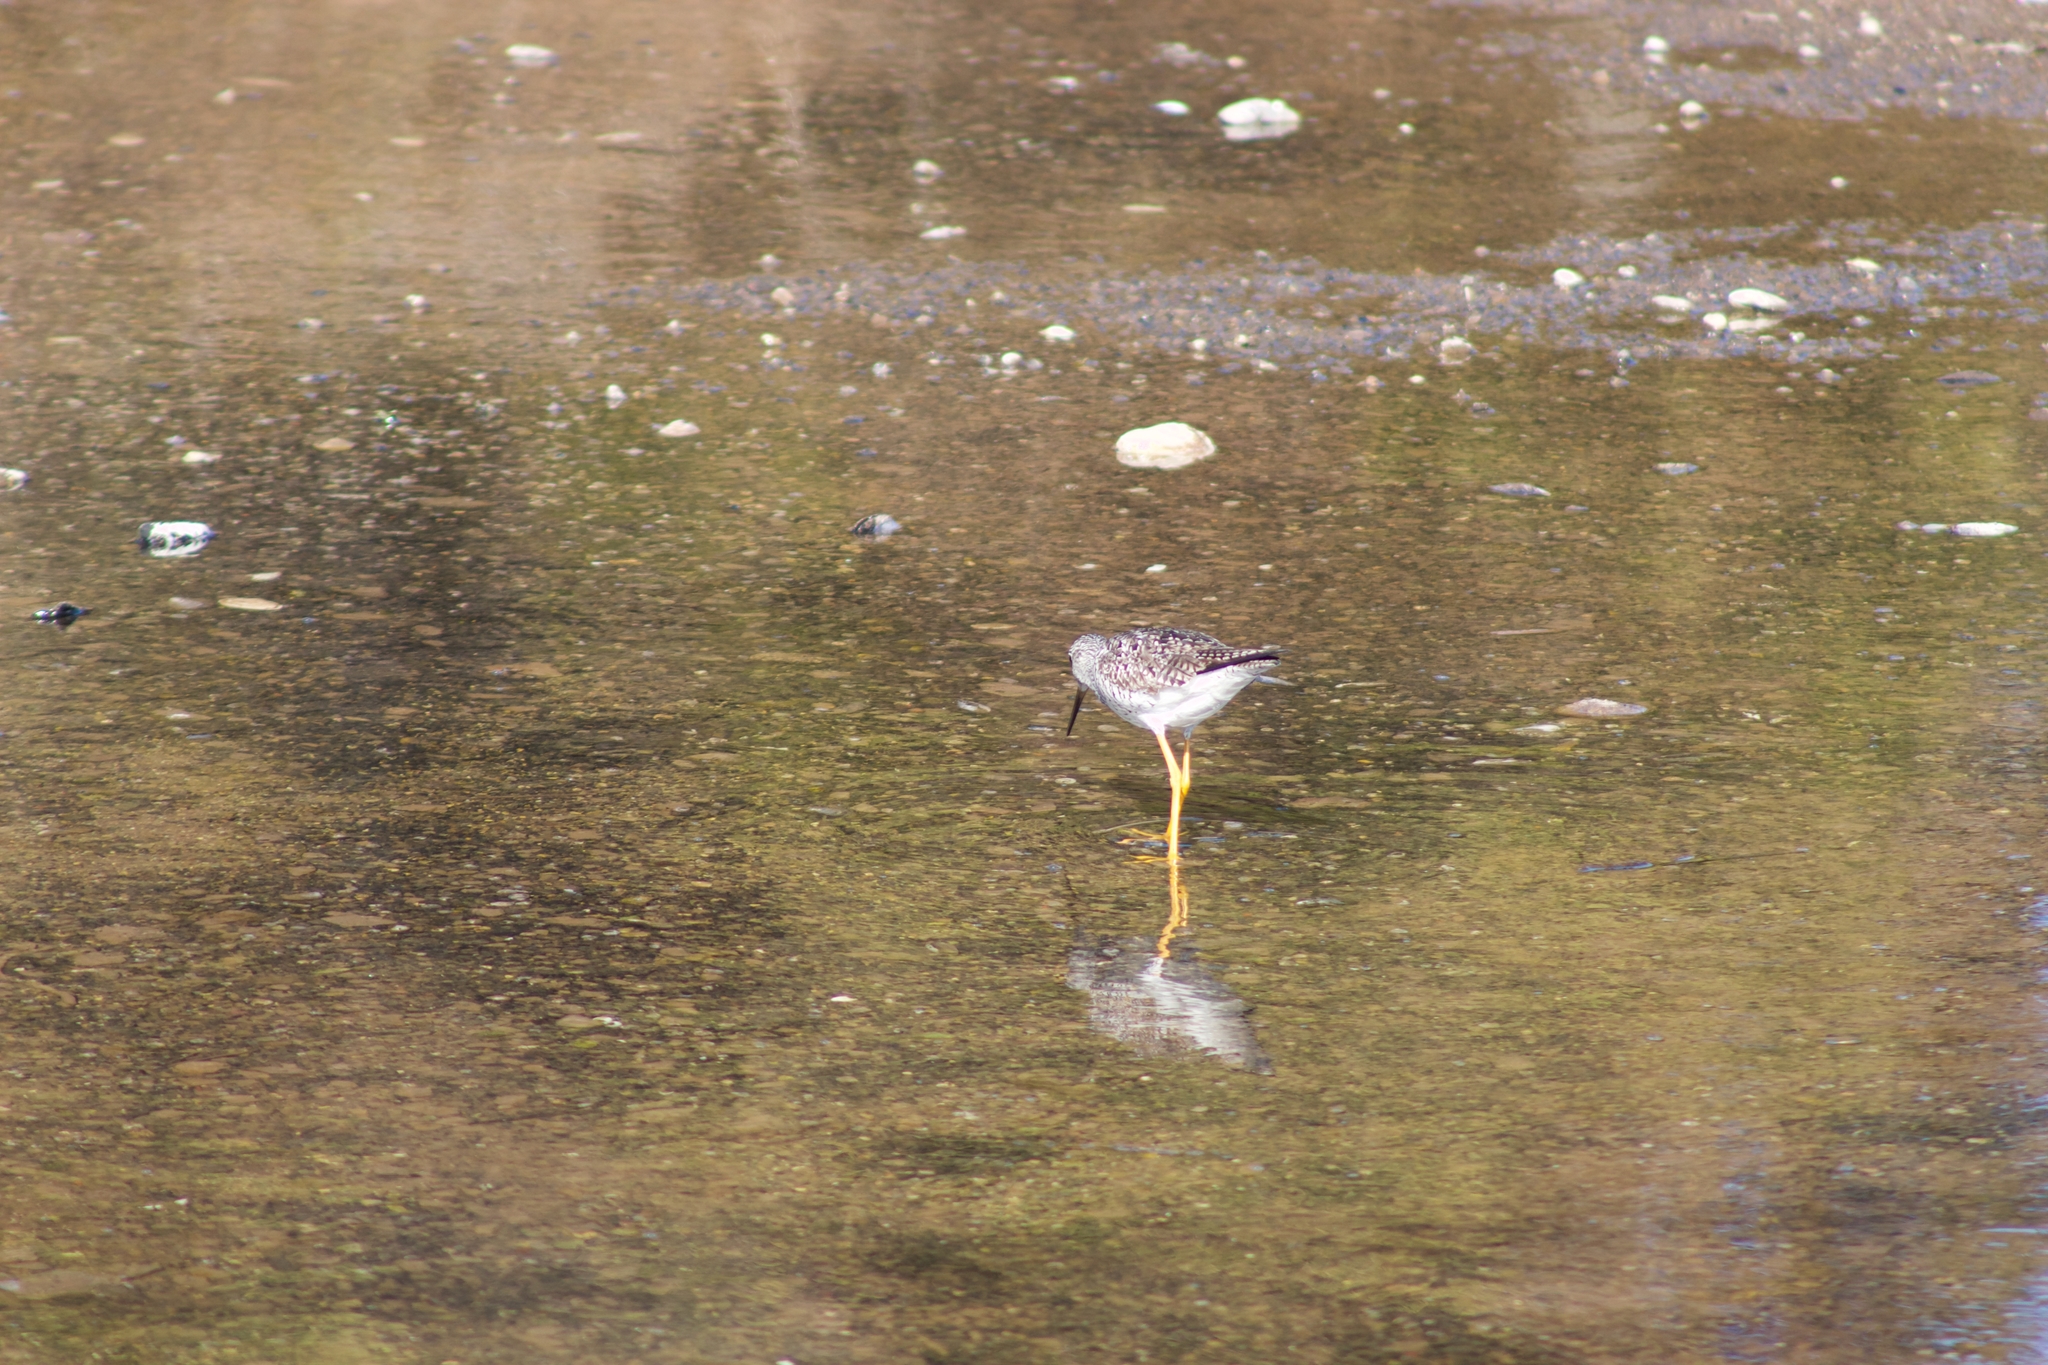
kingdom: Animalia
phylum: Chordata
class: Aves
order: Charadriiformes
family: Scolopacidae
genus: Tringa
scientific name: Tringa melanoleuca
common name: Greater yellowlegs
